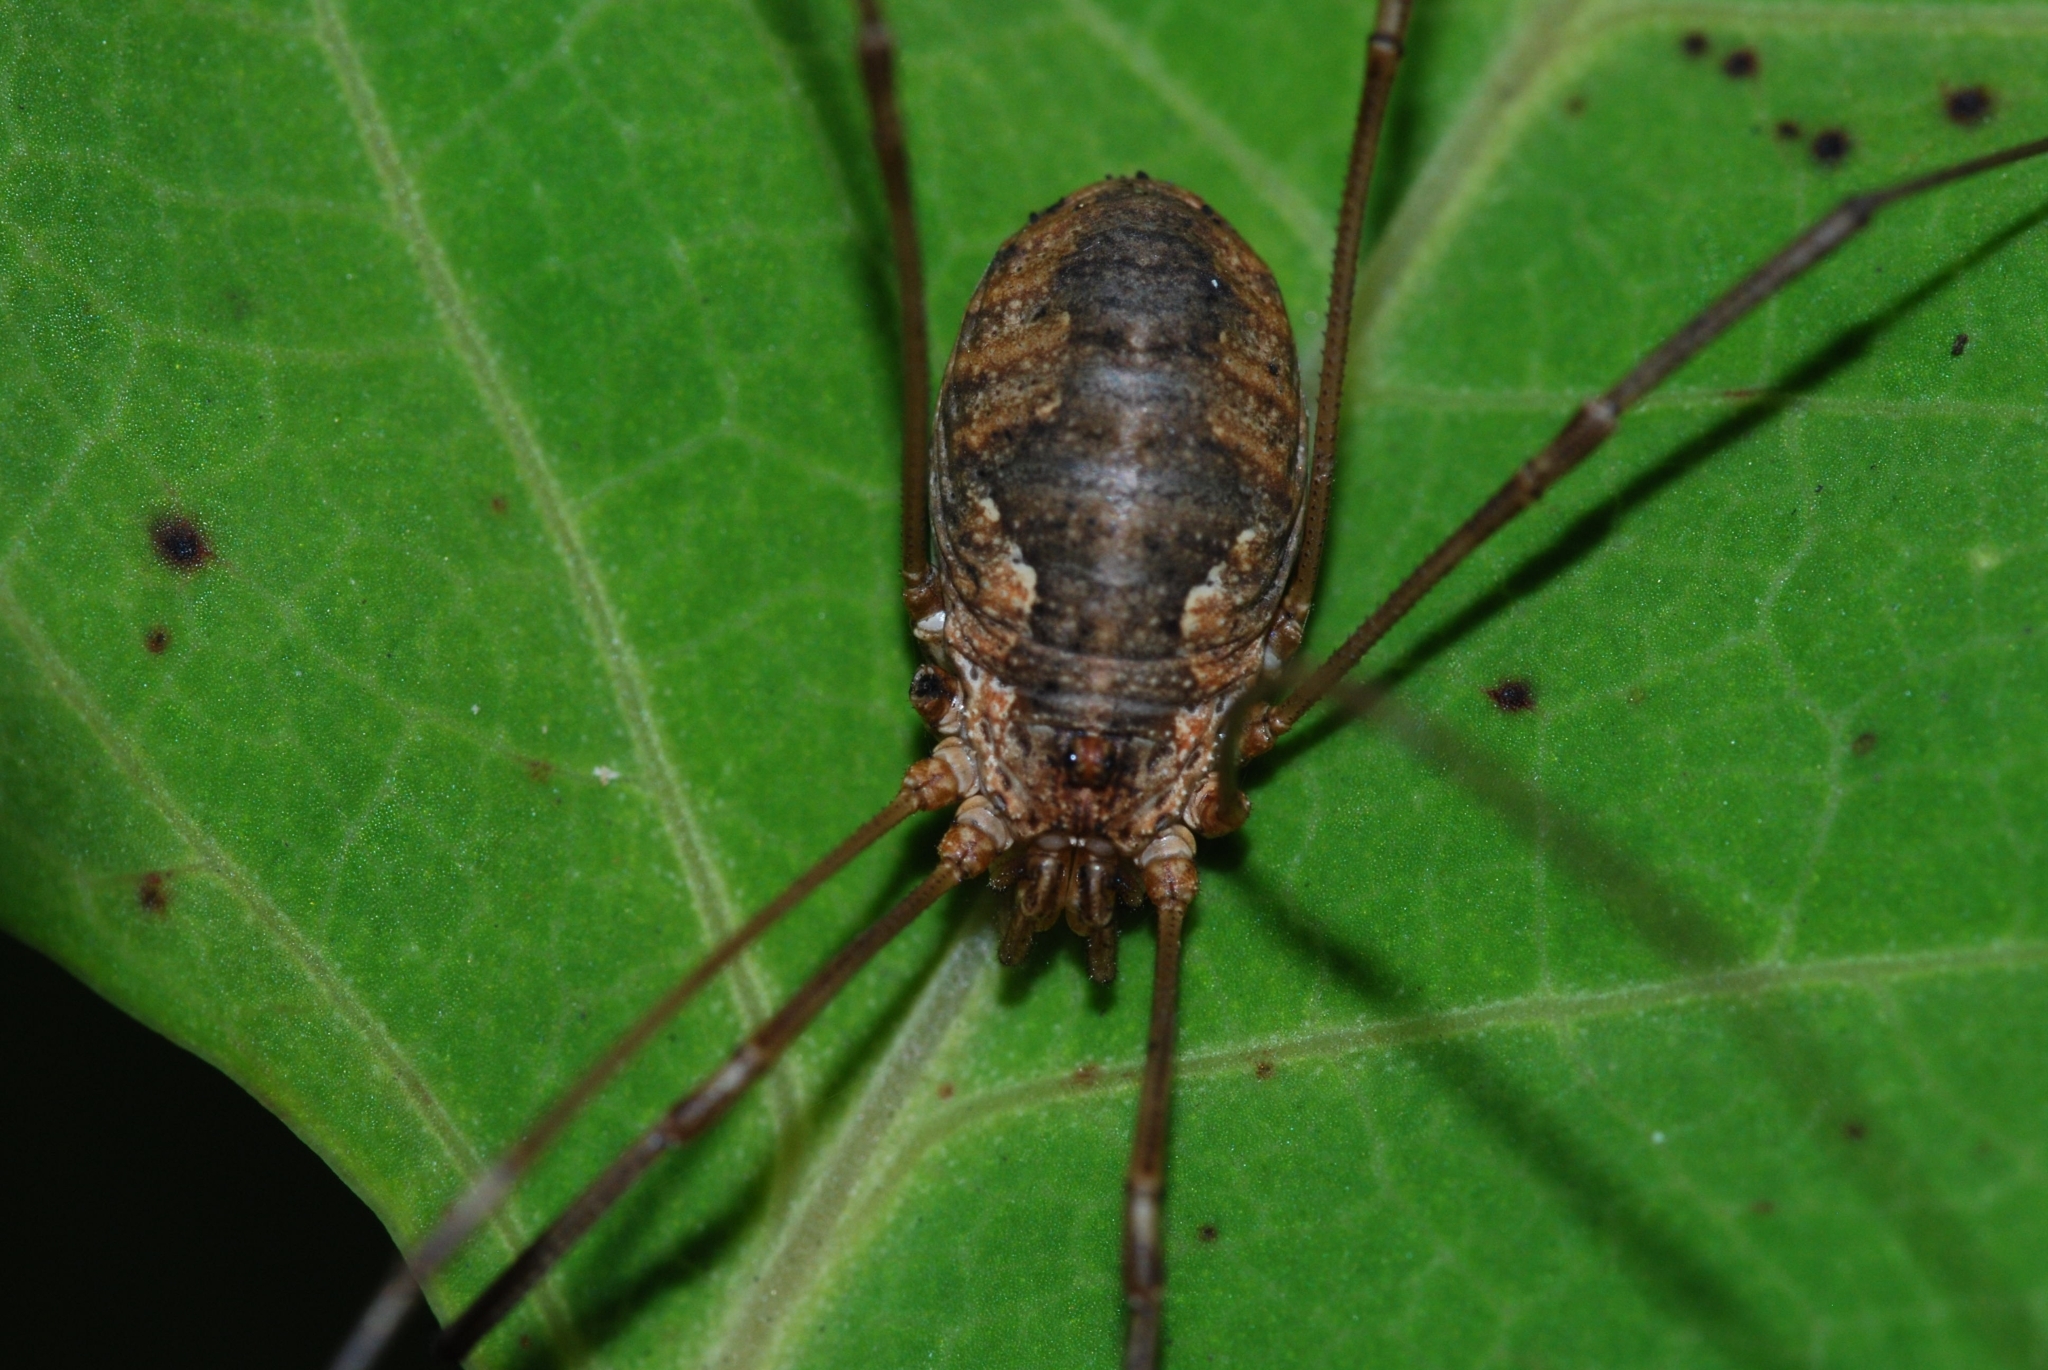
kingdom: Animalia
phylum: Arthropoda
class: Arachnida
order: Opiliones
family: Phalangiidae
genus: Phalangium
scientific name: Phalangium opilio
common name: Daddy longleg
